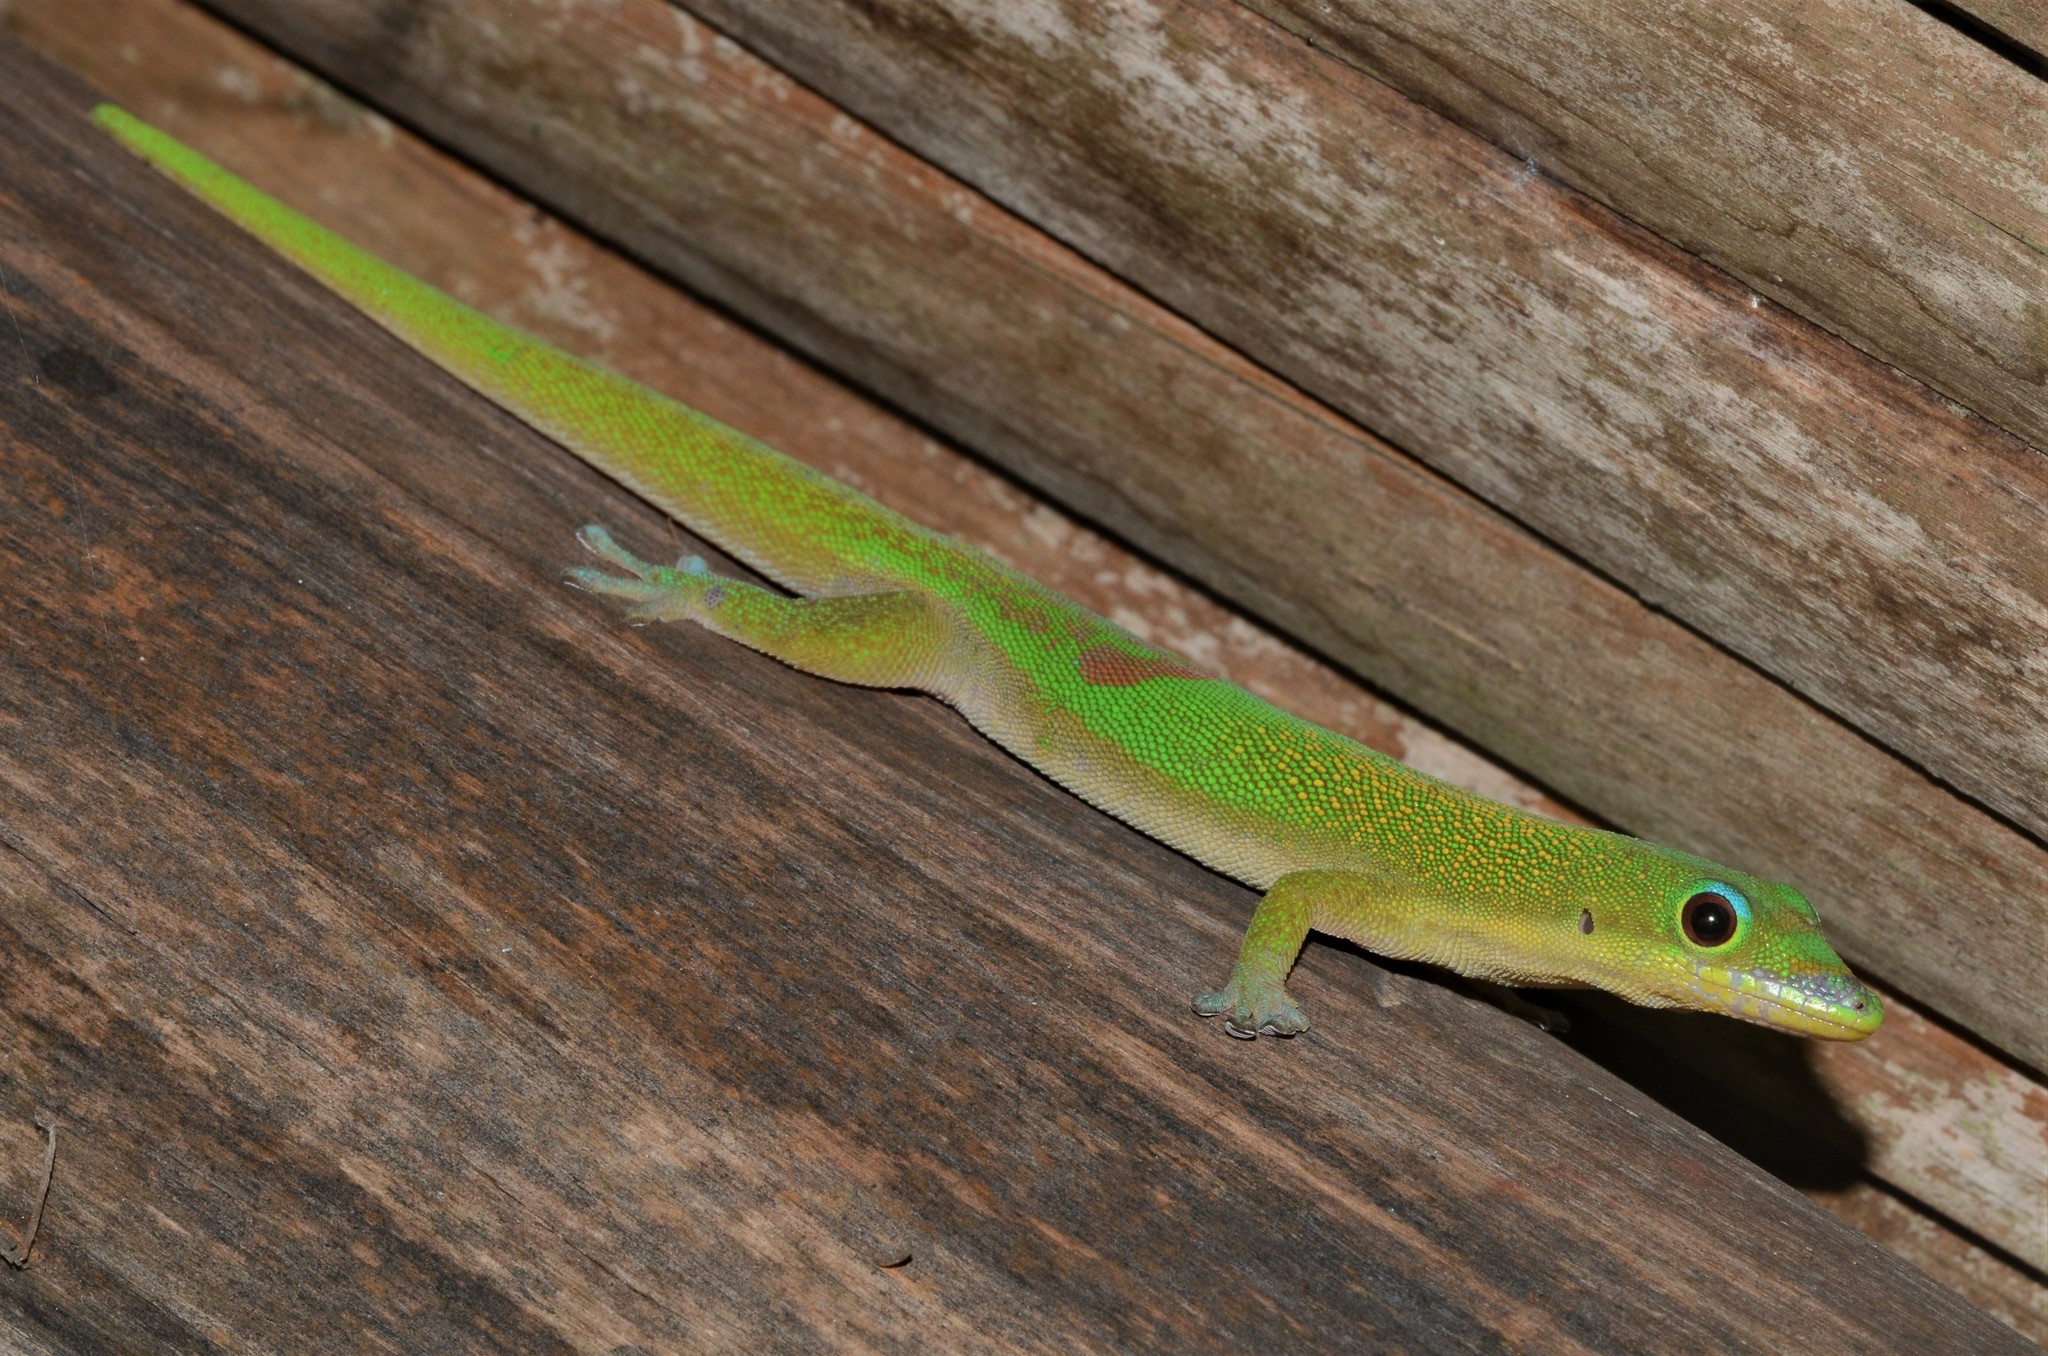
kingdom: Animalia
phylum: Chordata
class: Squamata
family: Gekkonidae
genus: Phelsuma
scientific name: Phelsuma laticauda
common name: Gold dust day gecko
